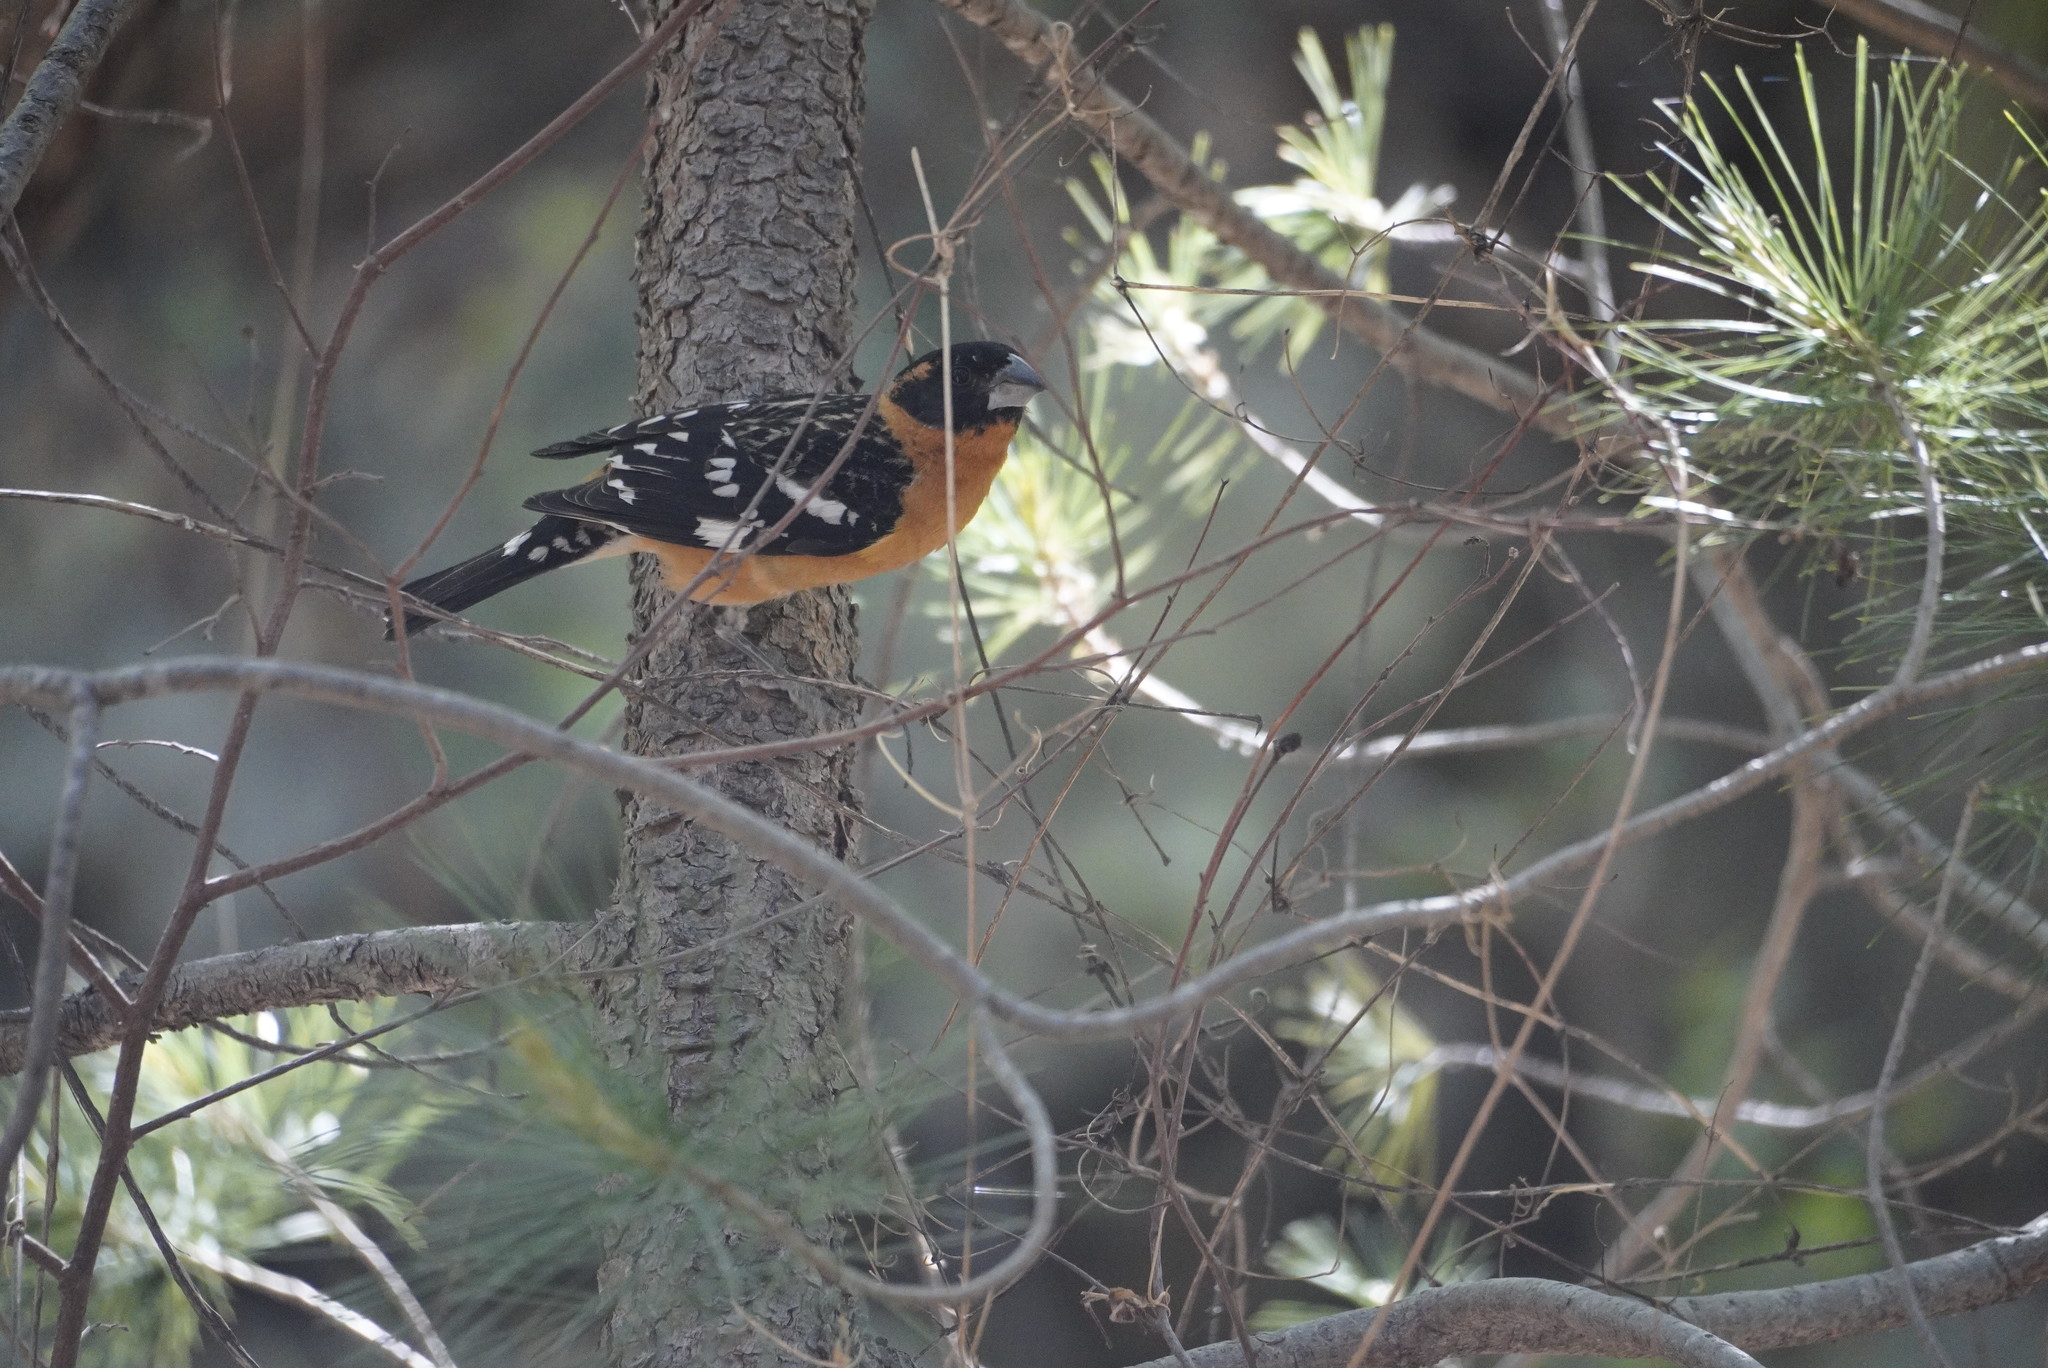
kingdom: Animalia
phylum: Chordata
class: Aves
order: Passeriformes
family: Cardinalidae
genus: Pheucticus
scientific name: Pheucticus melanocephalus
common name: Black-headed grosbeak
